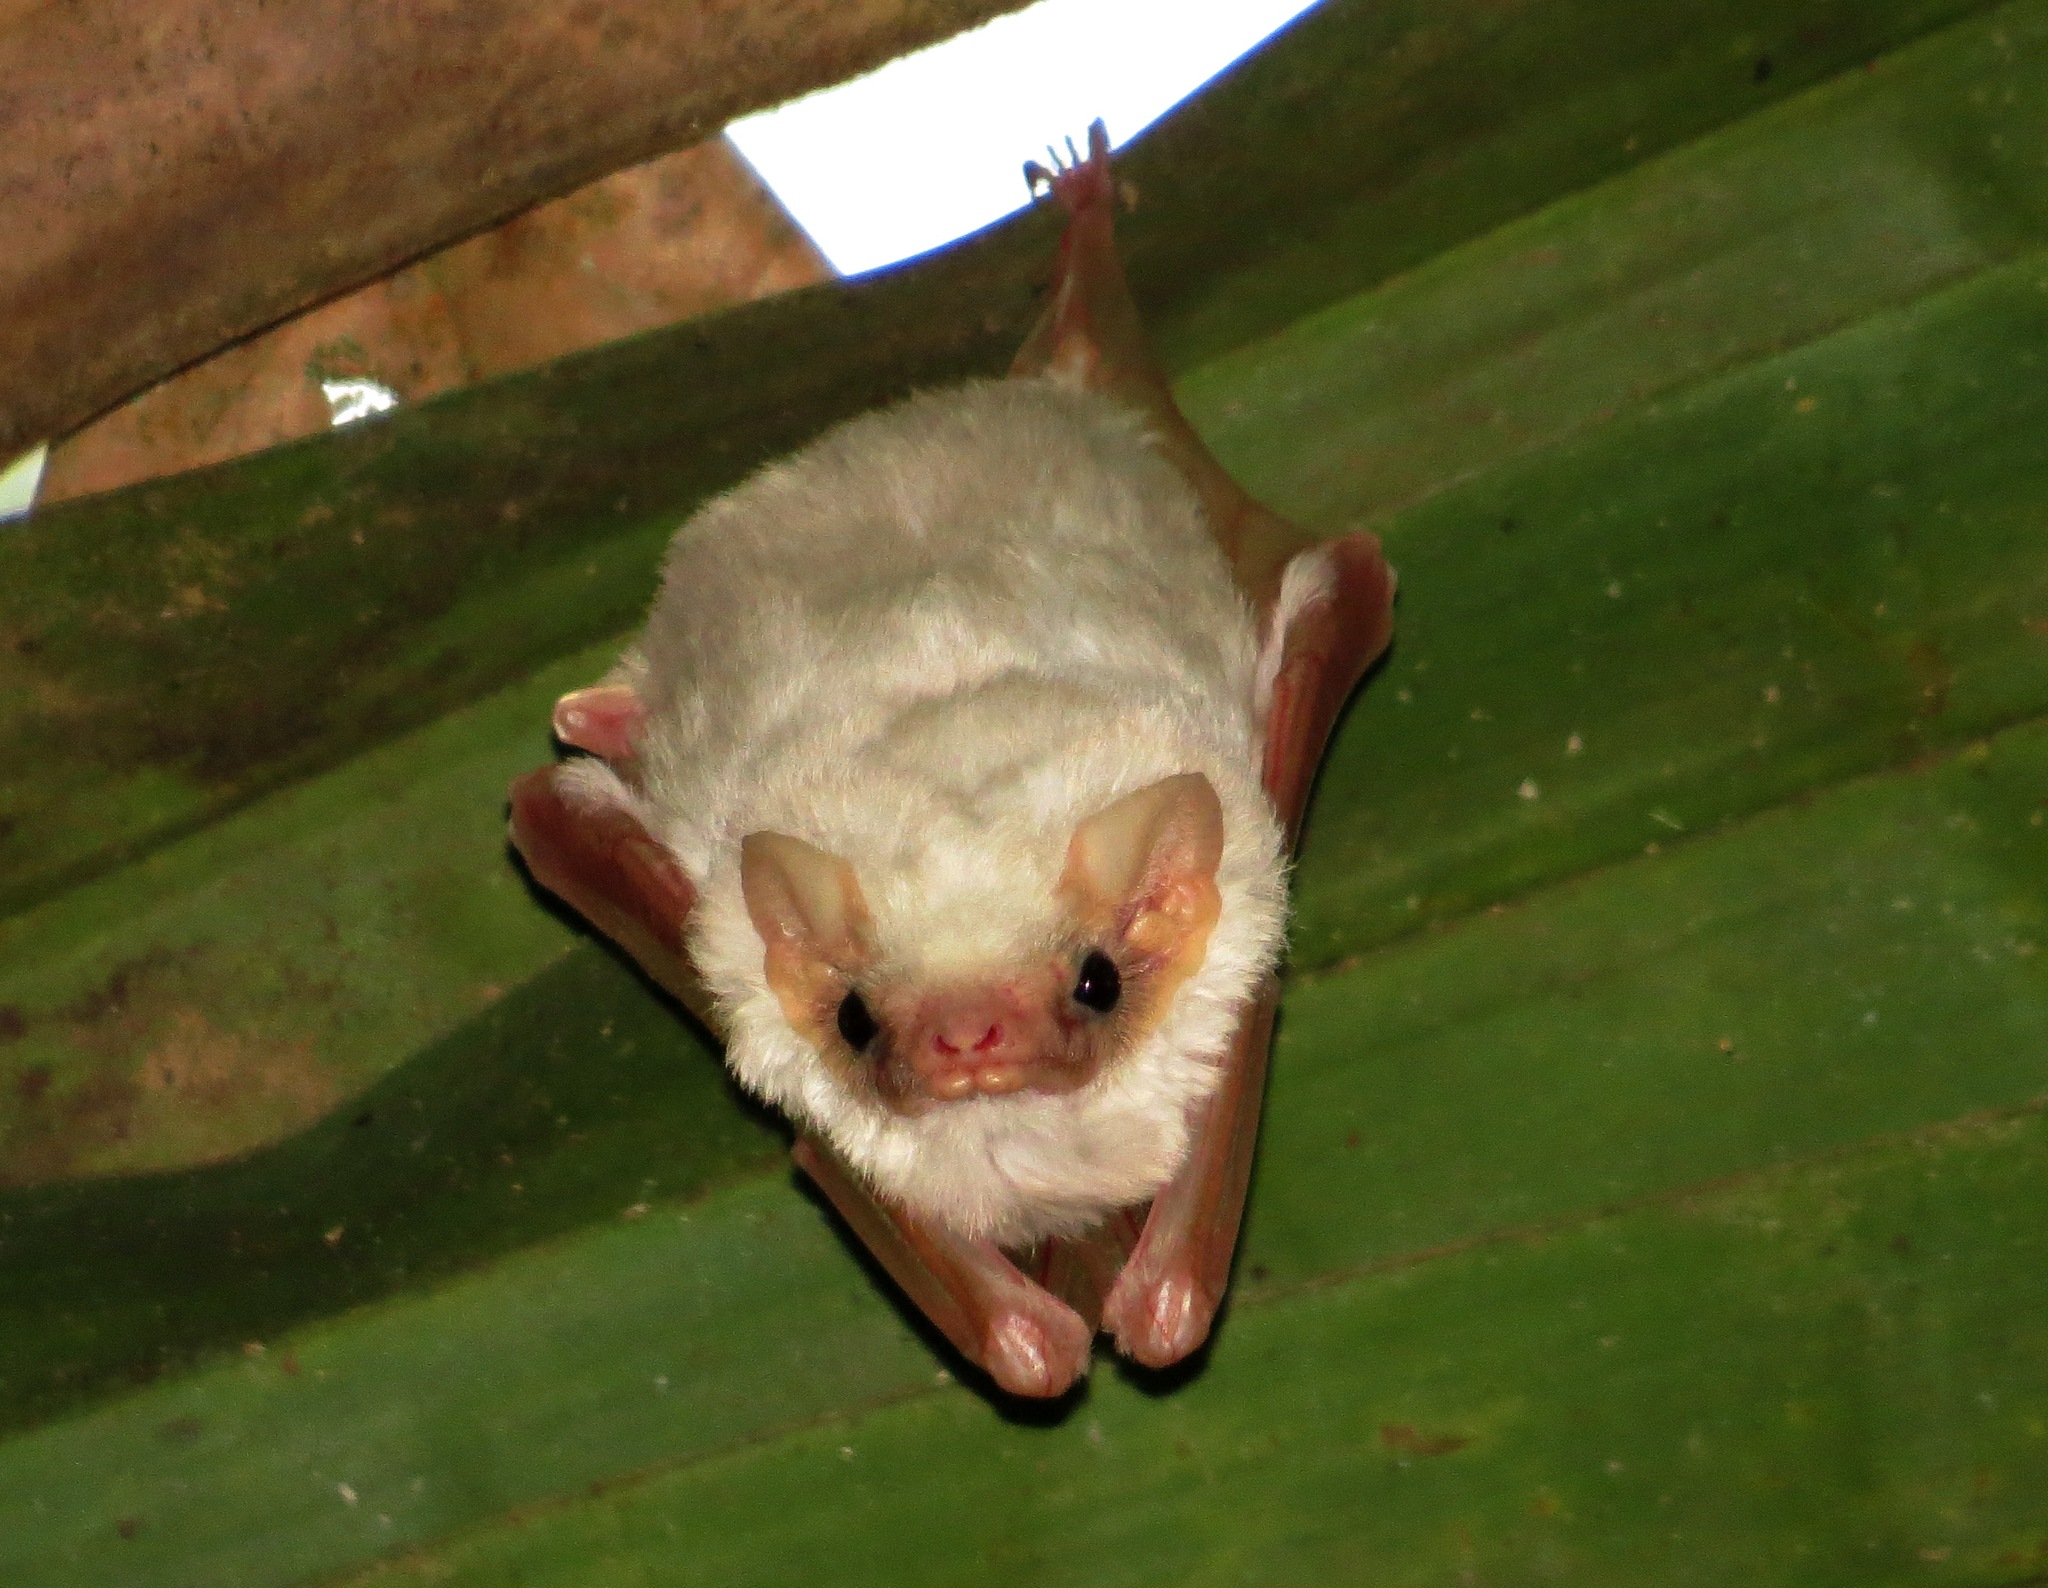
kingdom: Animalia
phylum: Chordata
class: Mammalia
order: Chiroptera
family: Emballonuridae
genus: Diclidurus
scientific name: Diclidurus albus
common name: Northern ghost bat
